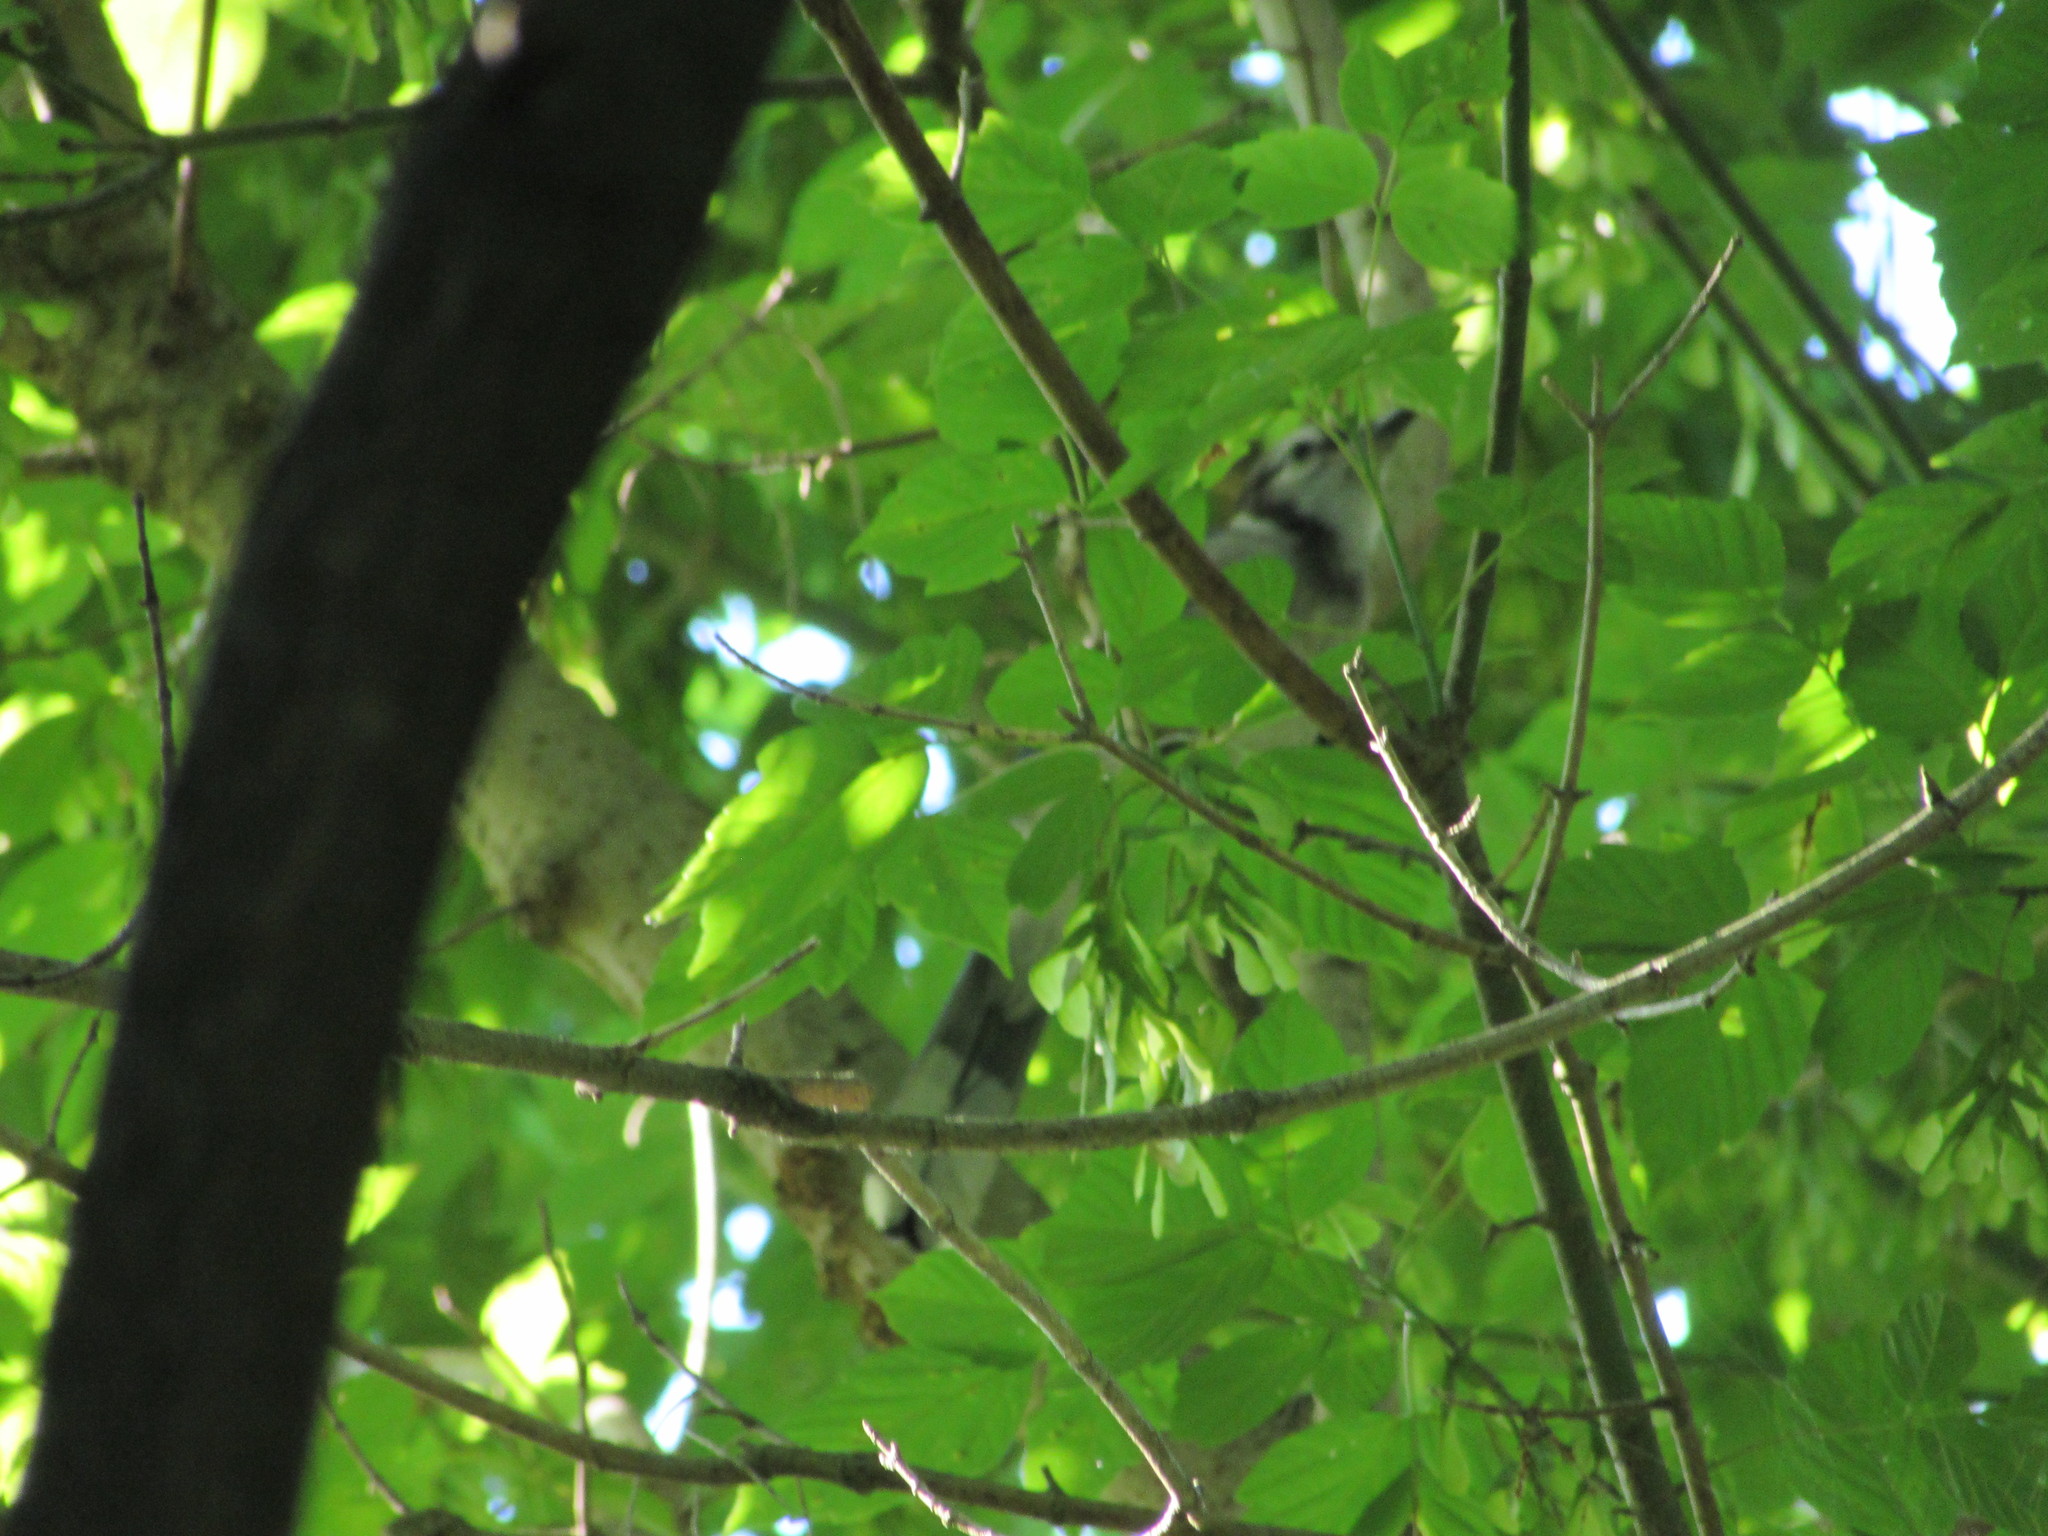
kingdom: Animalia
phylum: Chordata
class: Aves
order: Passeriformes
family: Corvidae
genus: Cyanocitta
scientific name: Cyanocitta cristata
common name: Blue jay
